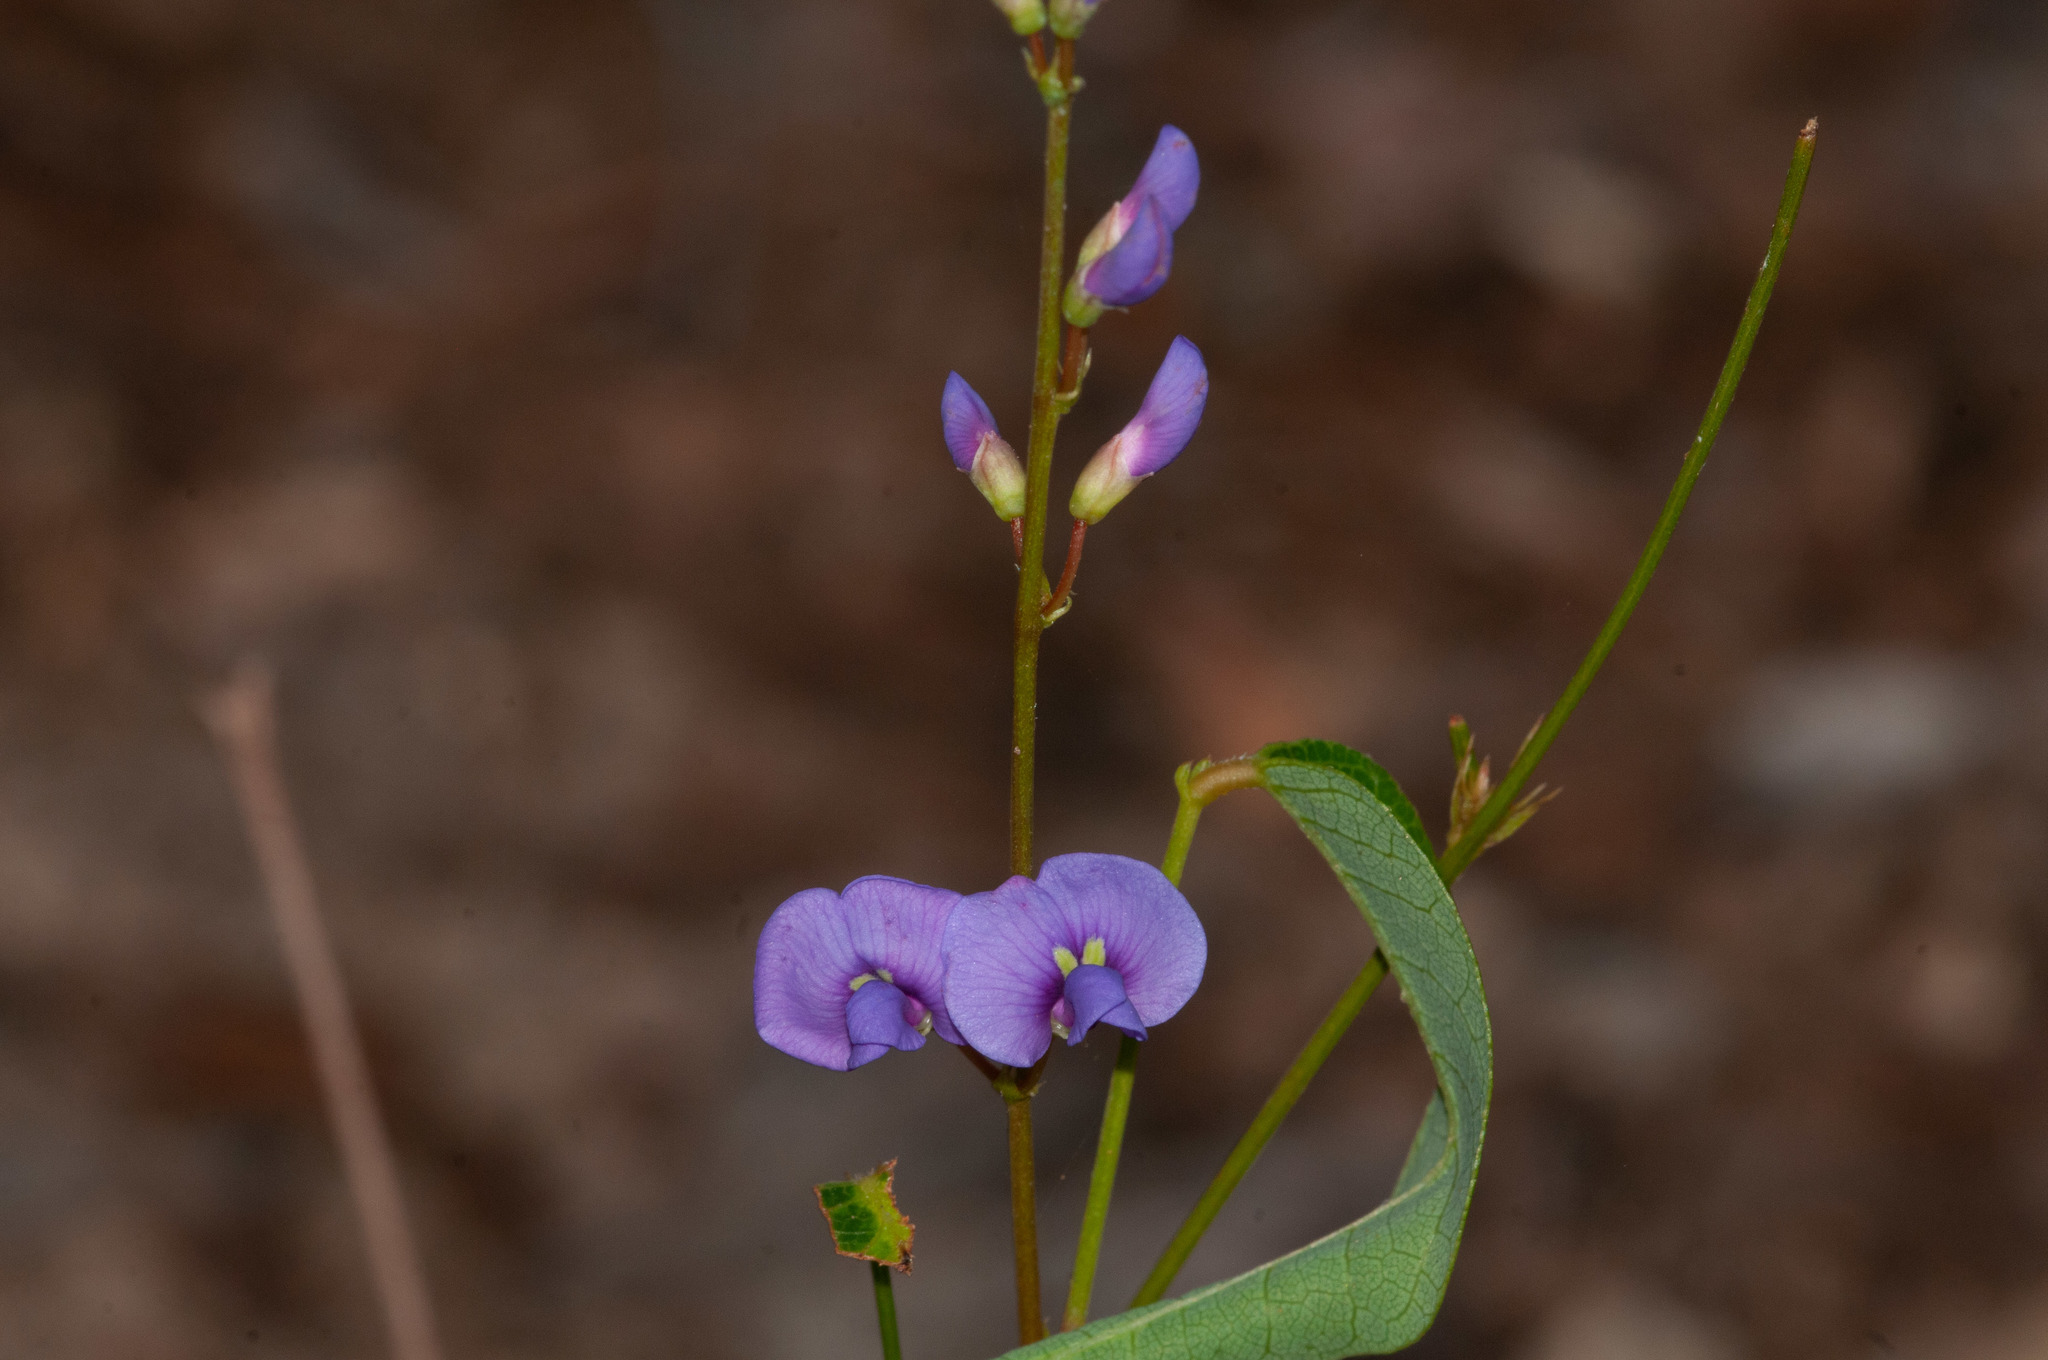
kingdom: Plantae
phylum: Tracheophyta
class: Magnoliopsida
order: Fabales
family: Fabaceae
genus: Hardenbergia
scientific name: Hardenbergia violacea
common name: Coral-pea
